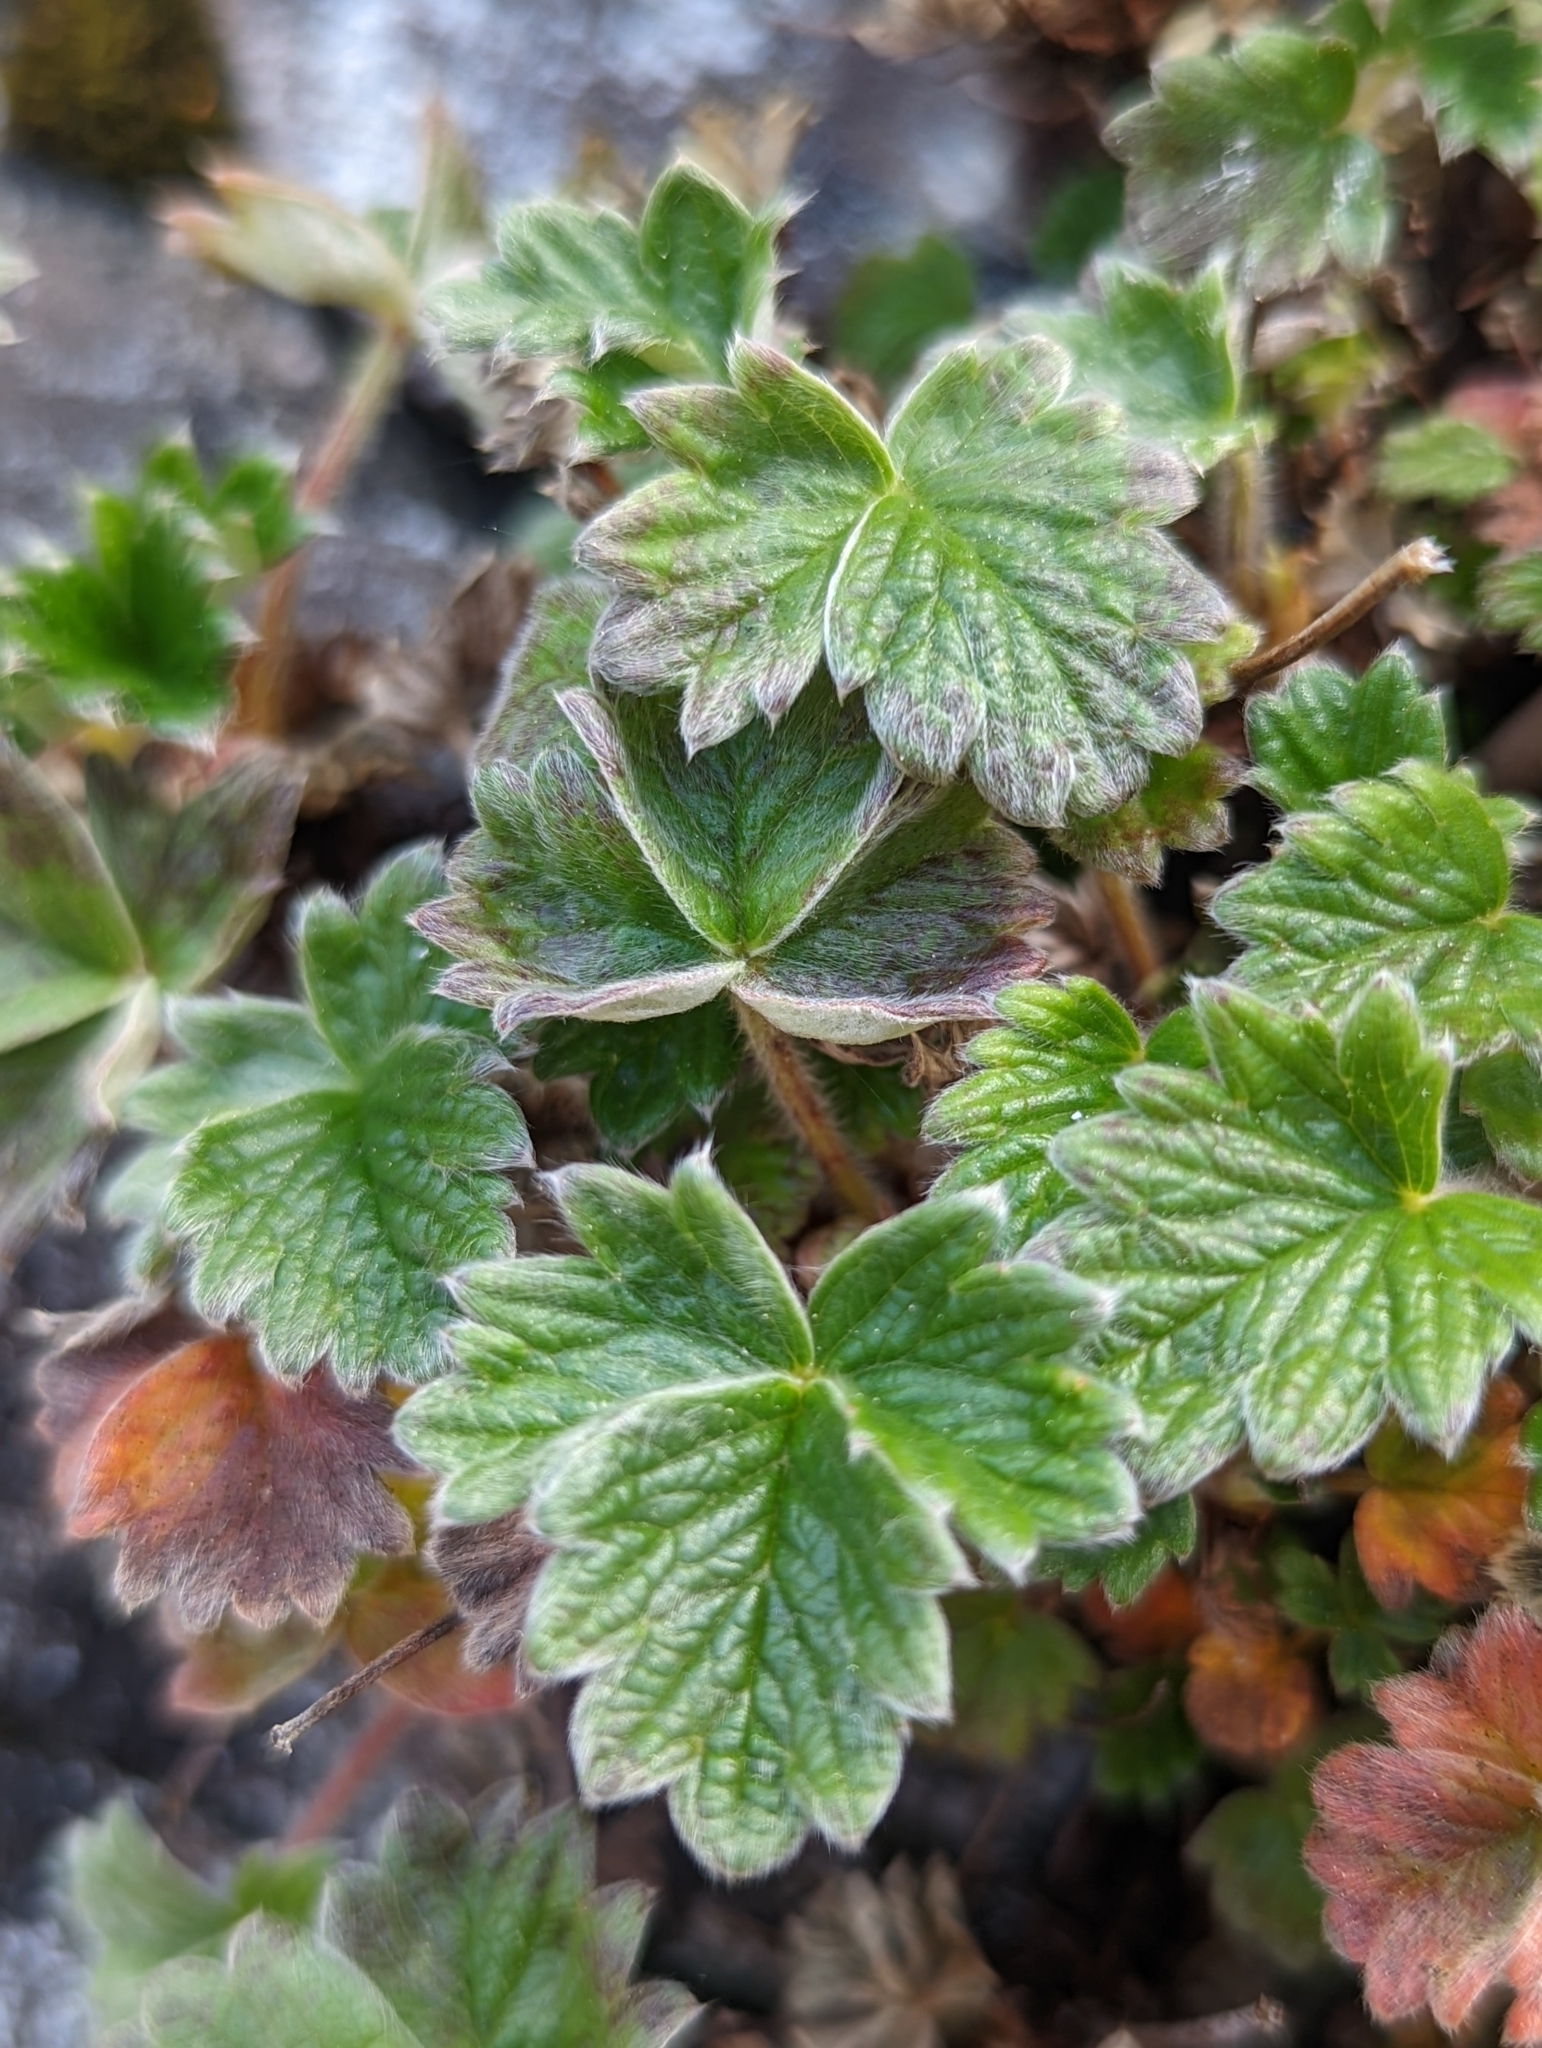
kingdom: Plantae
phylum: Tracheophyta
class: Magnoliopsida
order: Rosales
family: Rosaceae
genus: Potentilla
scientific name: Potentilla villosa
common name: Northern cinquefoil
